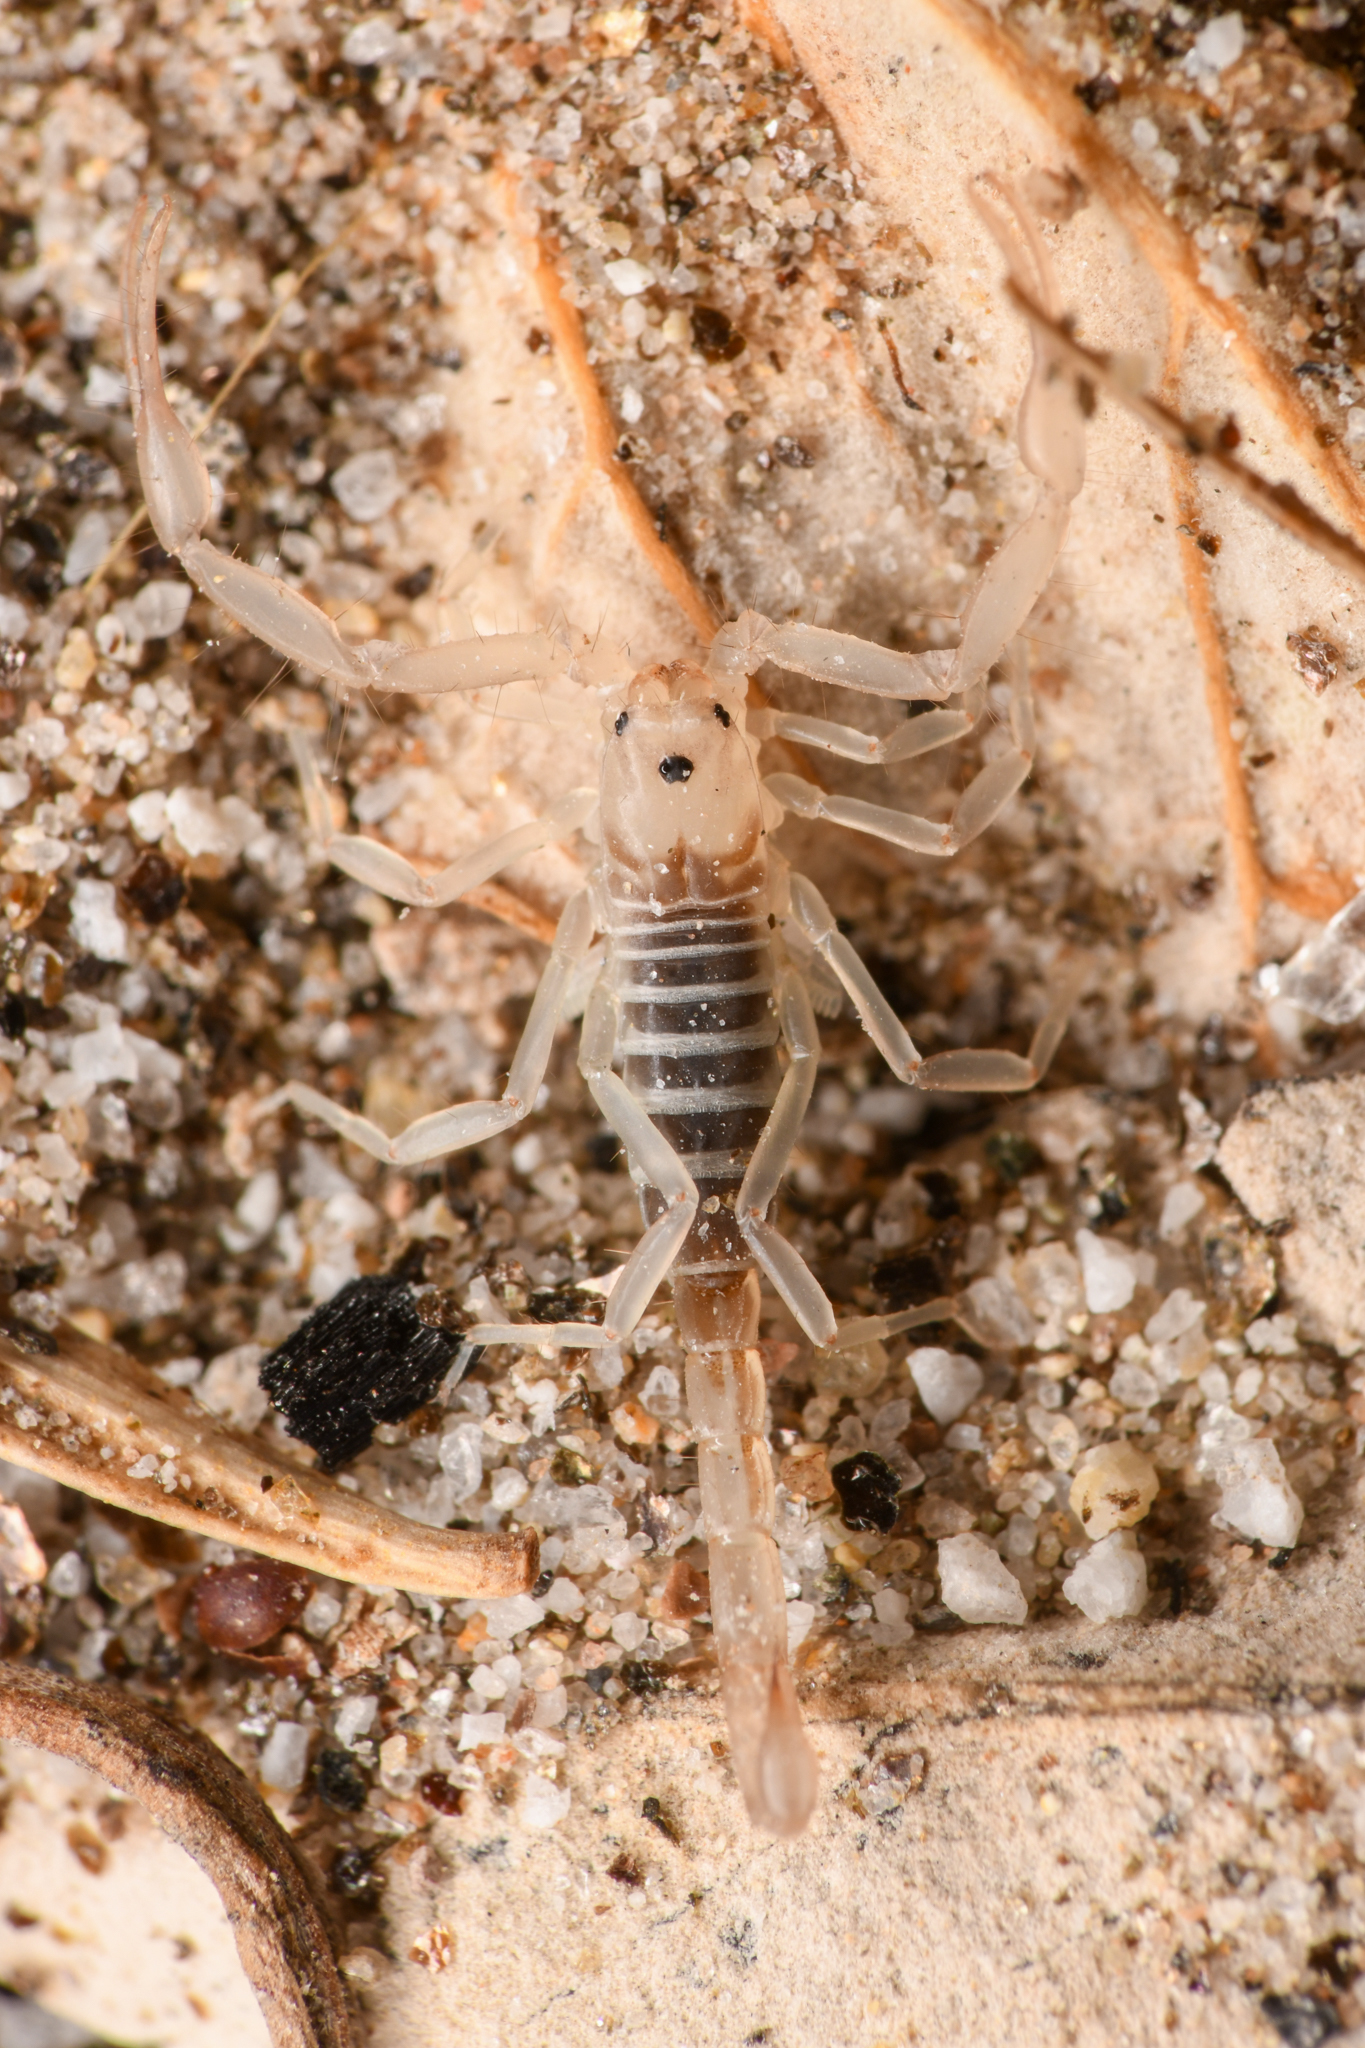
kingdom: Animalia
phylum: Arthropoda
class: Arachnida
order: Scorpiones
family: Vaejovidae
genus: Stahnkeus
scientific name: Stahnkeus subtilimanus
